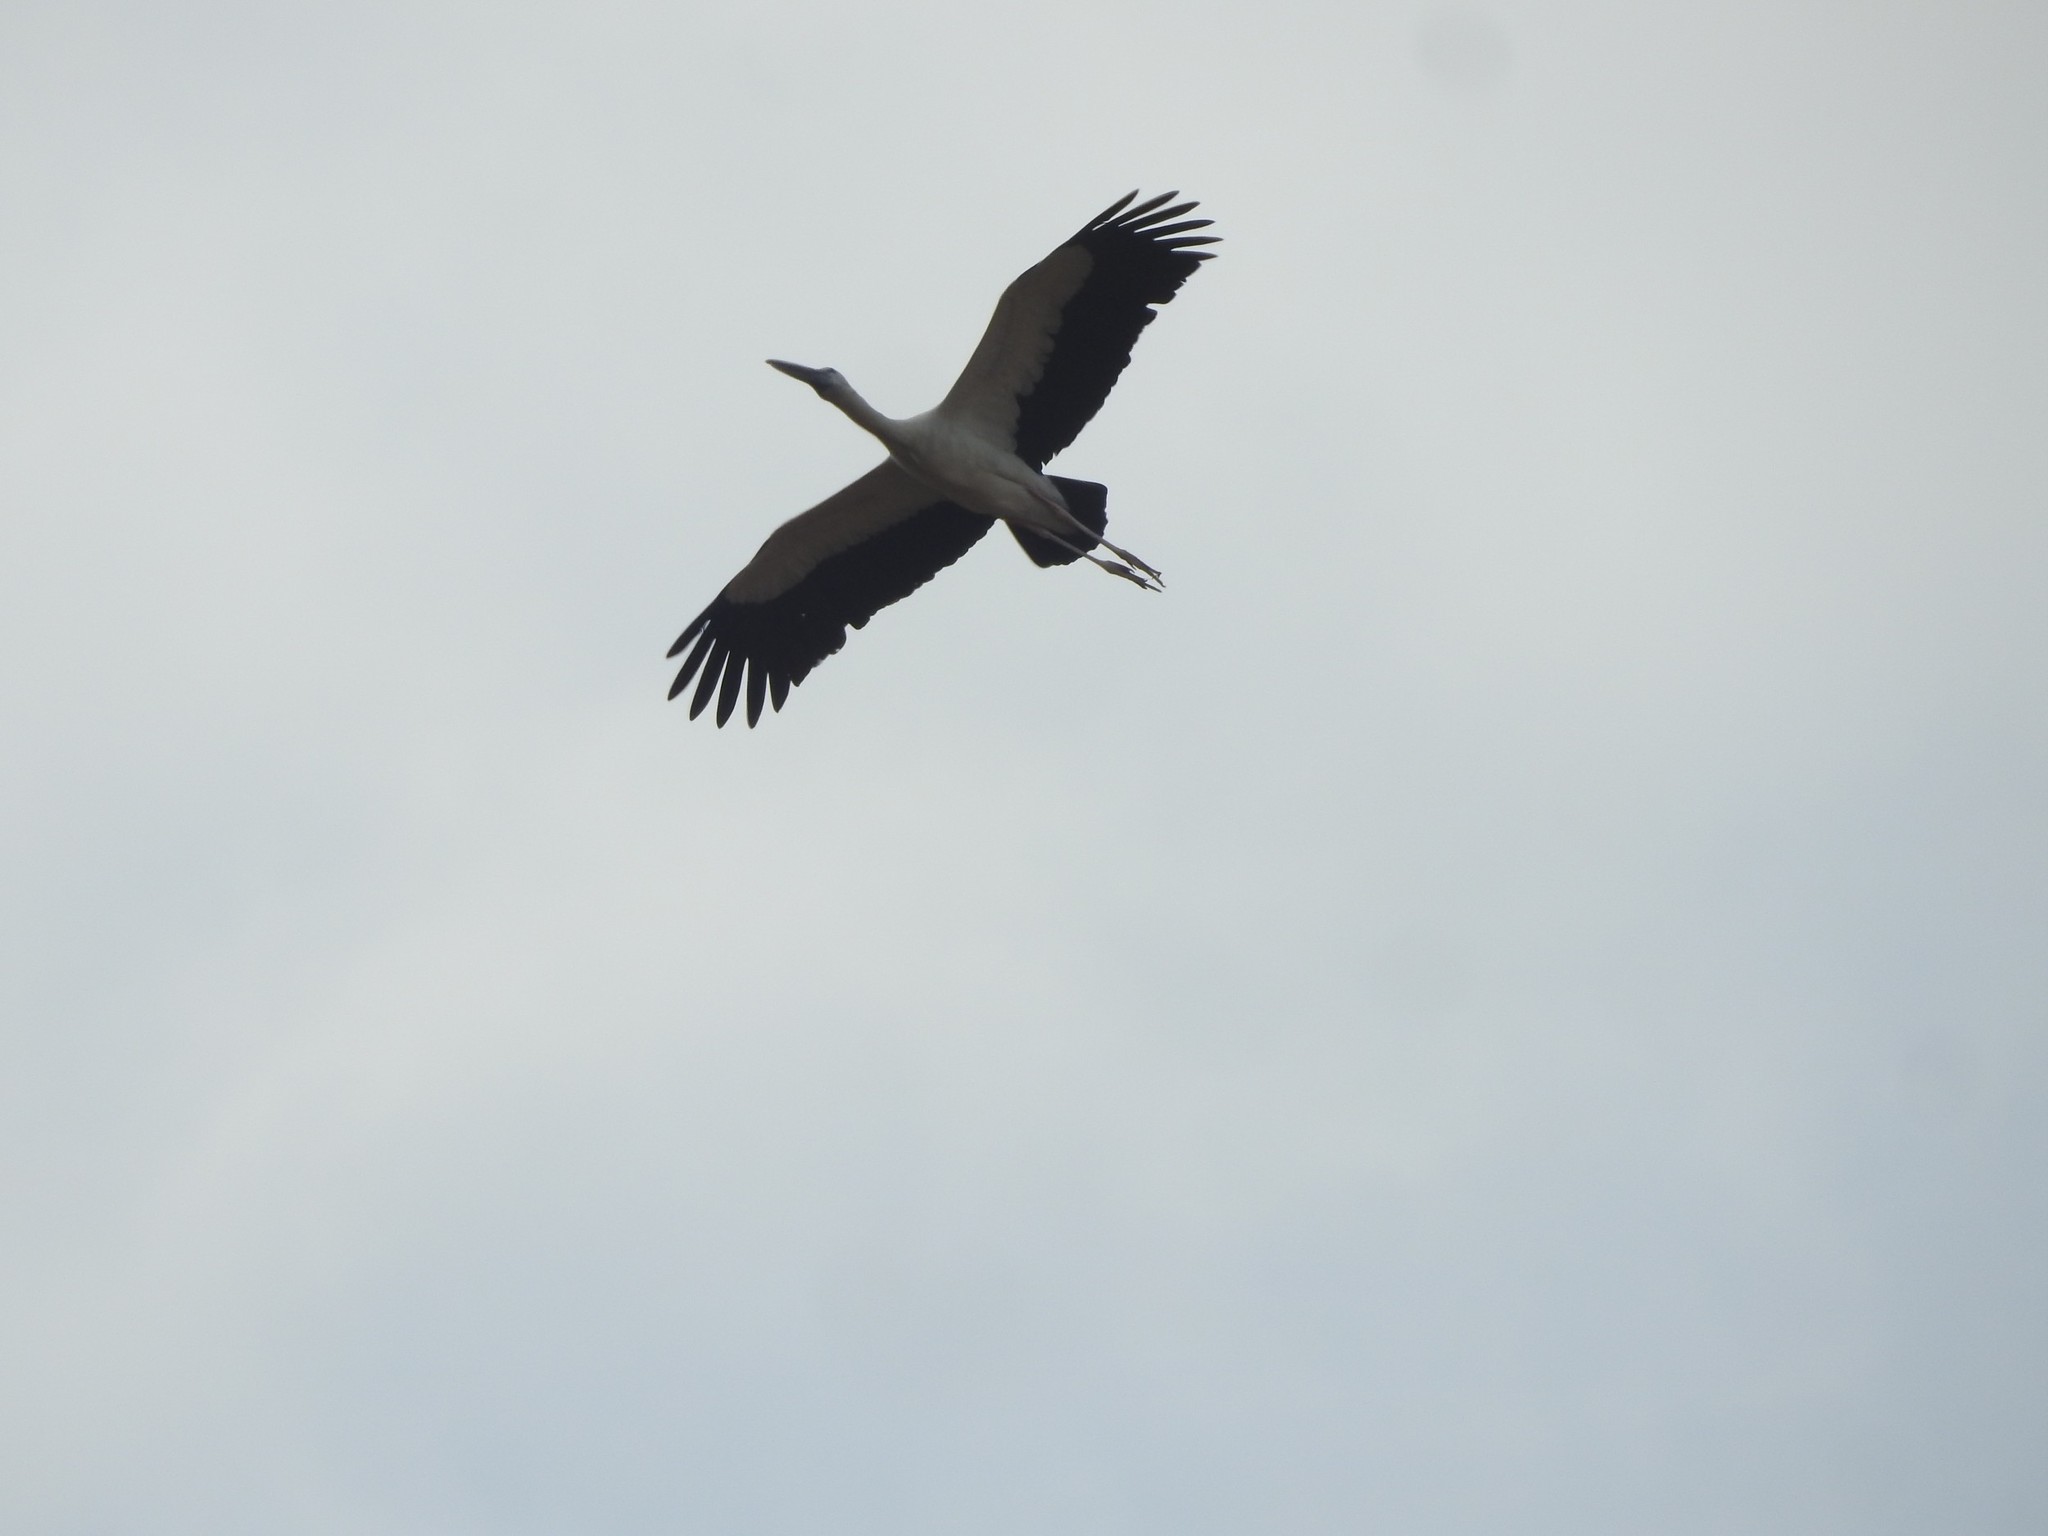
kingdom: Animalia
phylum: Chordata
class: Aves
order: Ciconiiformes
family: Ciconiidae
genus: Anastomus
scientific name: Anastomus oscitans
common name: Asian openbill
